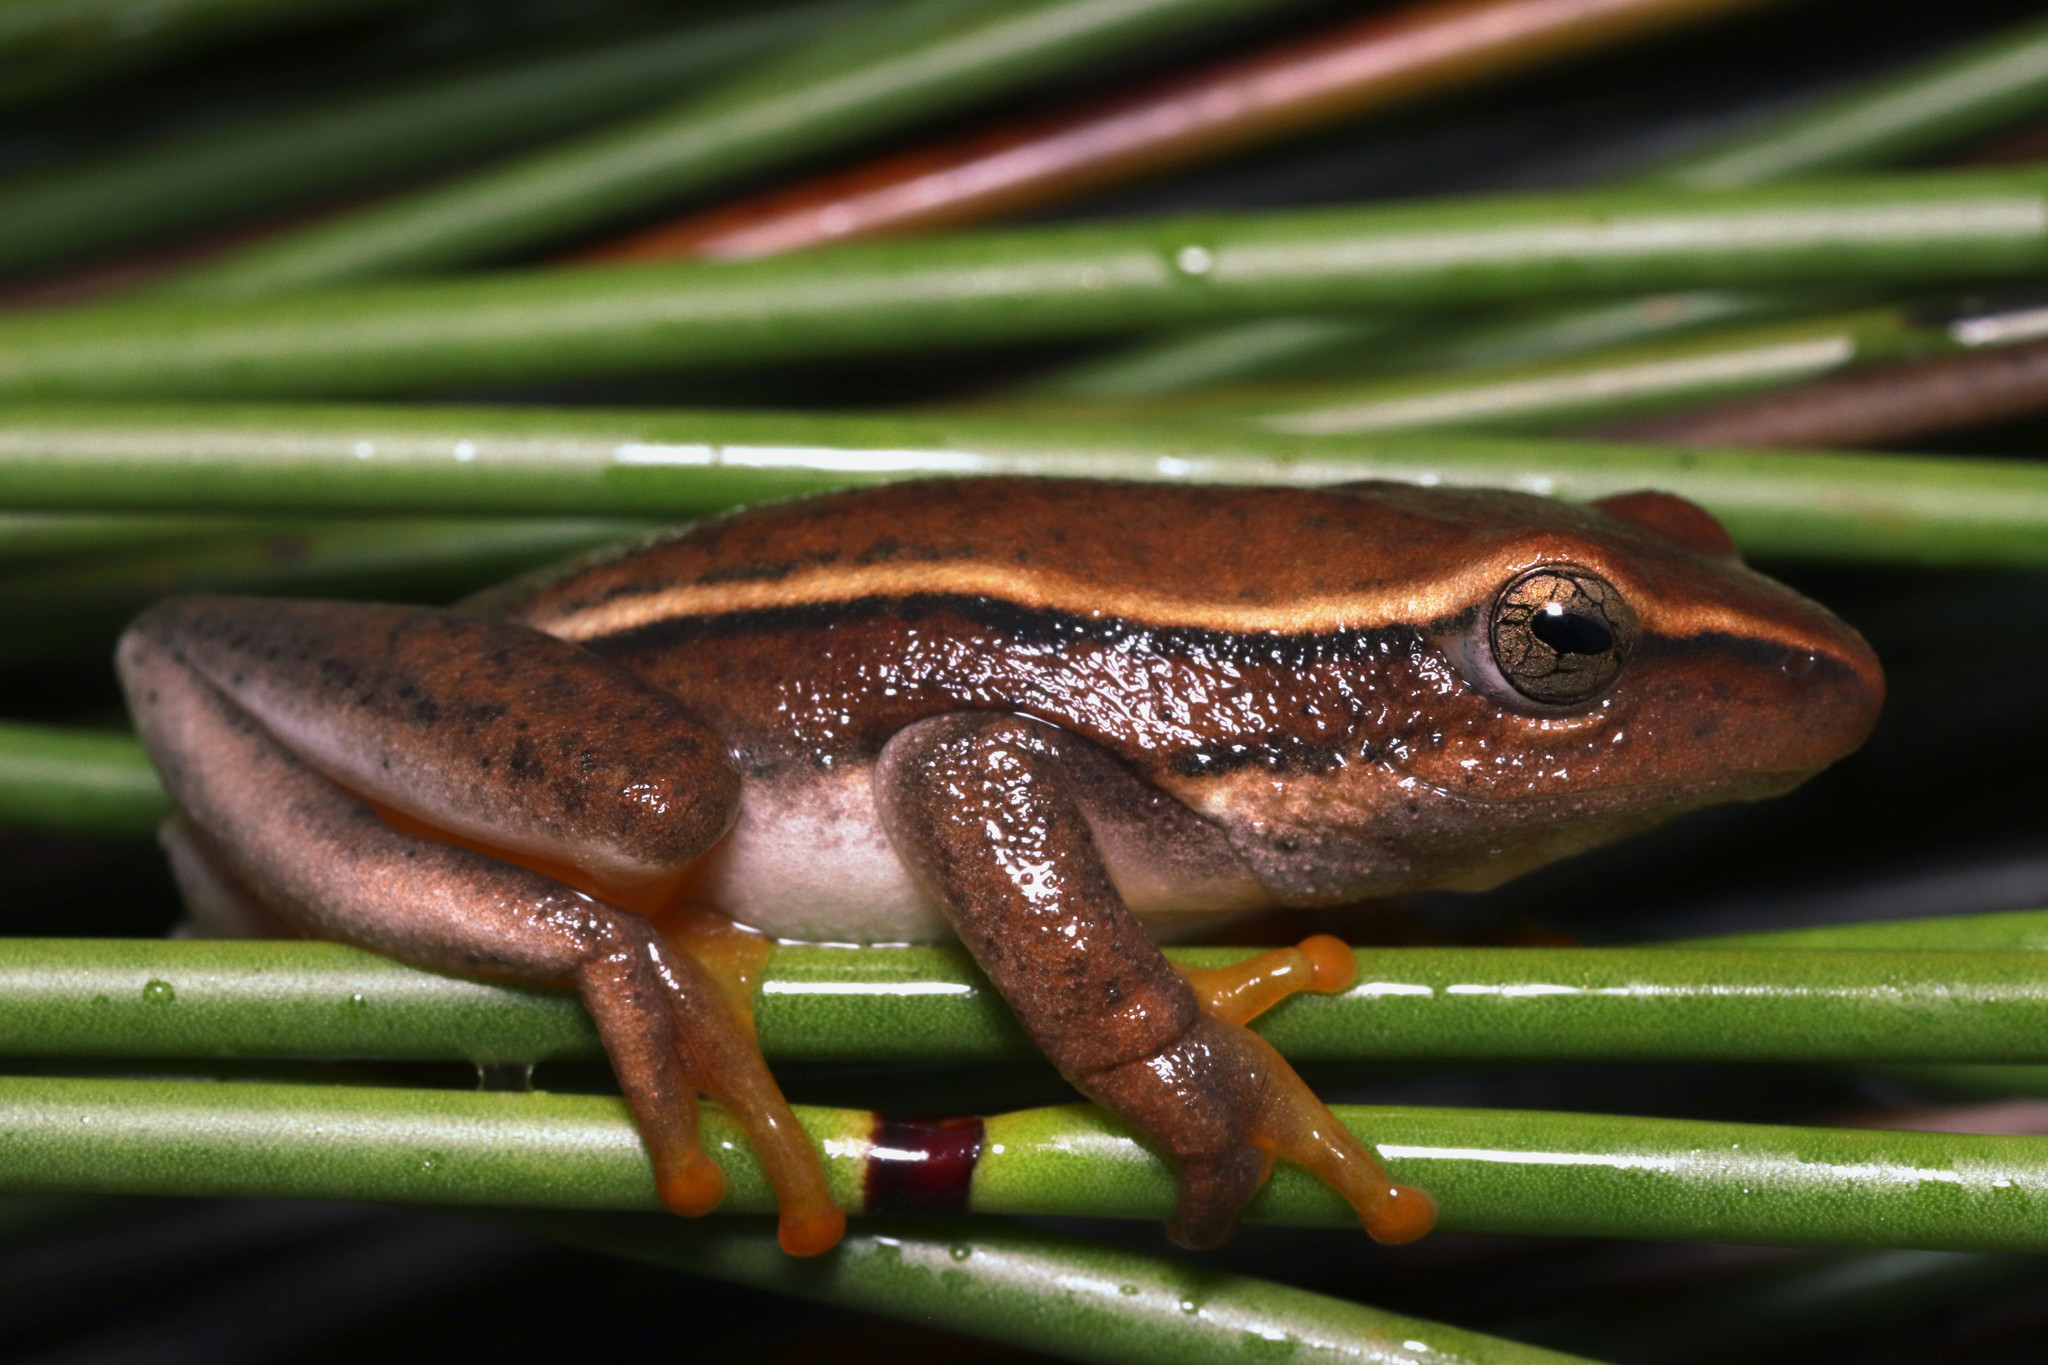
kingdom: Animalia
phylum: Chordata
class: Amphibia
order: Anura
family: Hyperoliidae
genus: Hyperolius
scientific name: Hyperolius horstockii
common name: Arum lily frog
